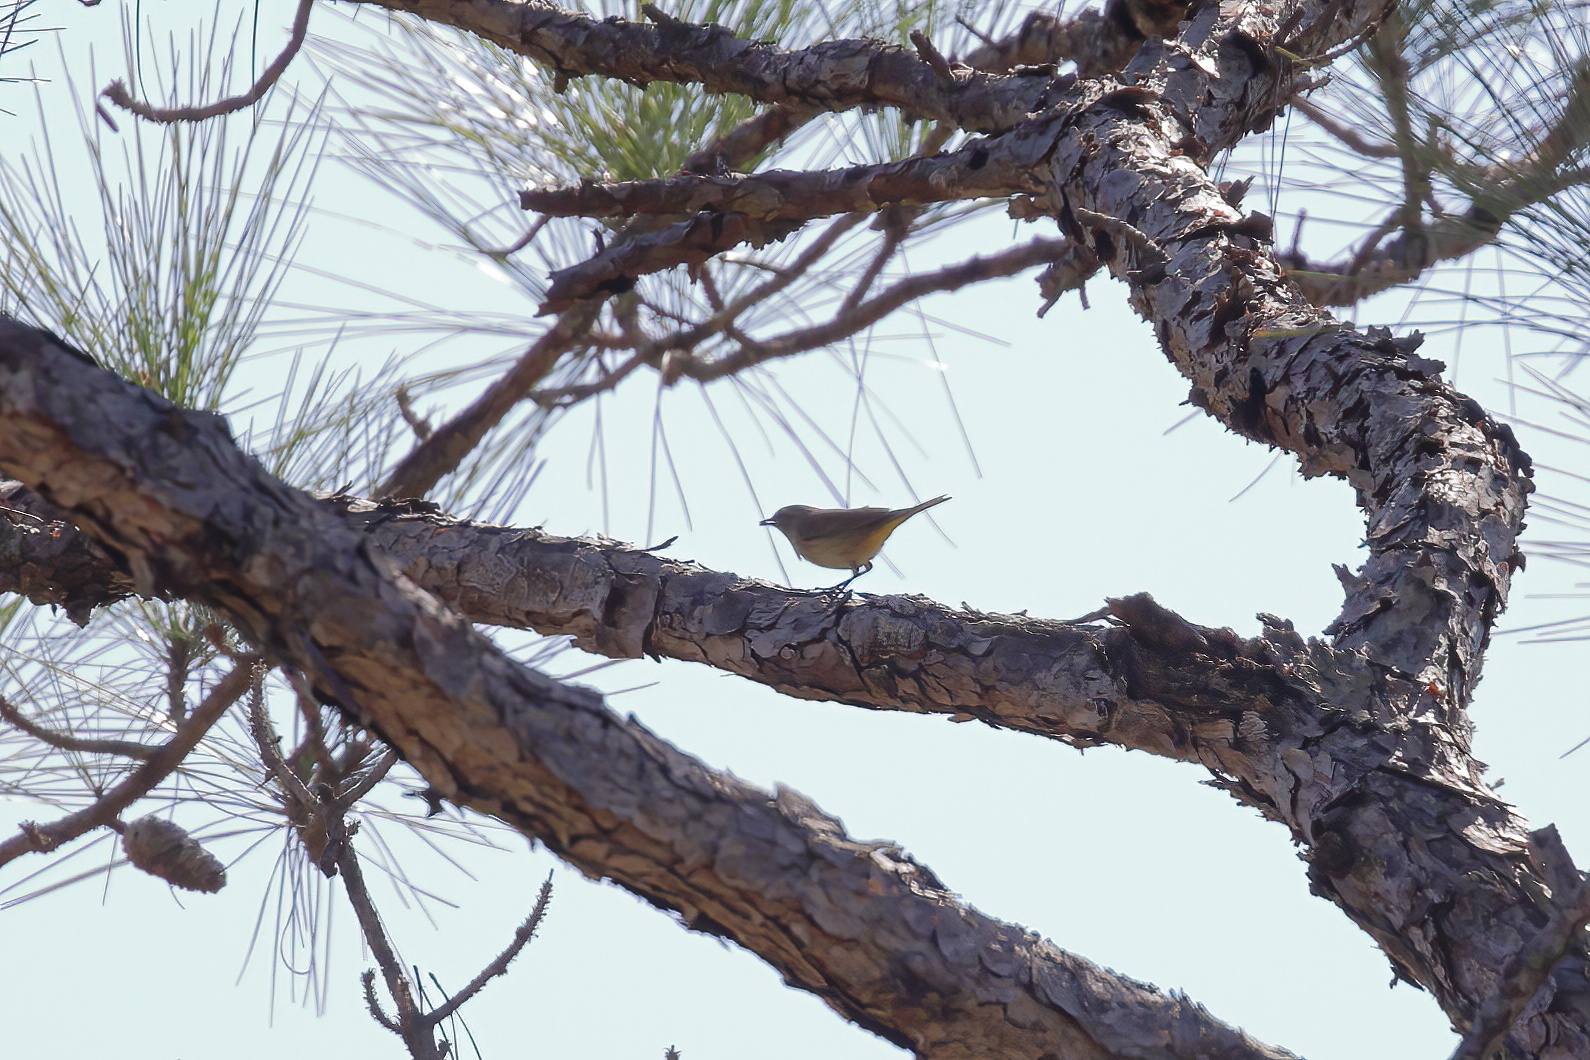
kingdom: Animalia
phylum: Chordata
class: Aves
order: Passeriformes
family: Parulidae
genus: Setophaga
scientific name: Setophaga palmarum
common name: Palm warbler
